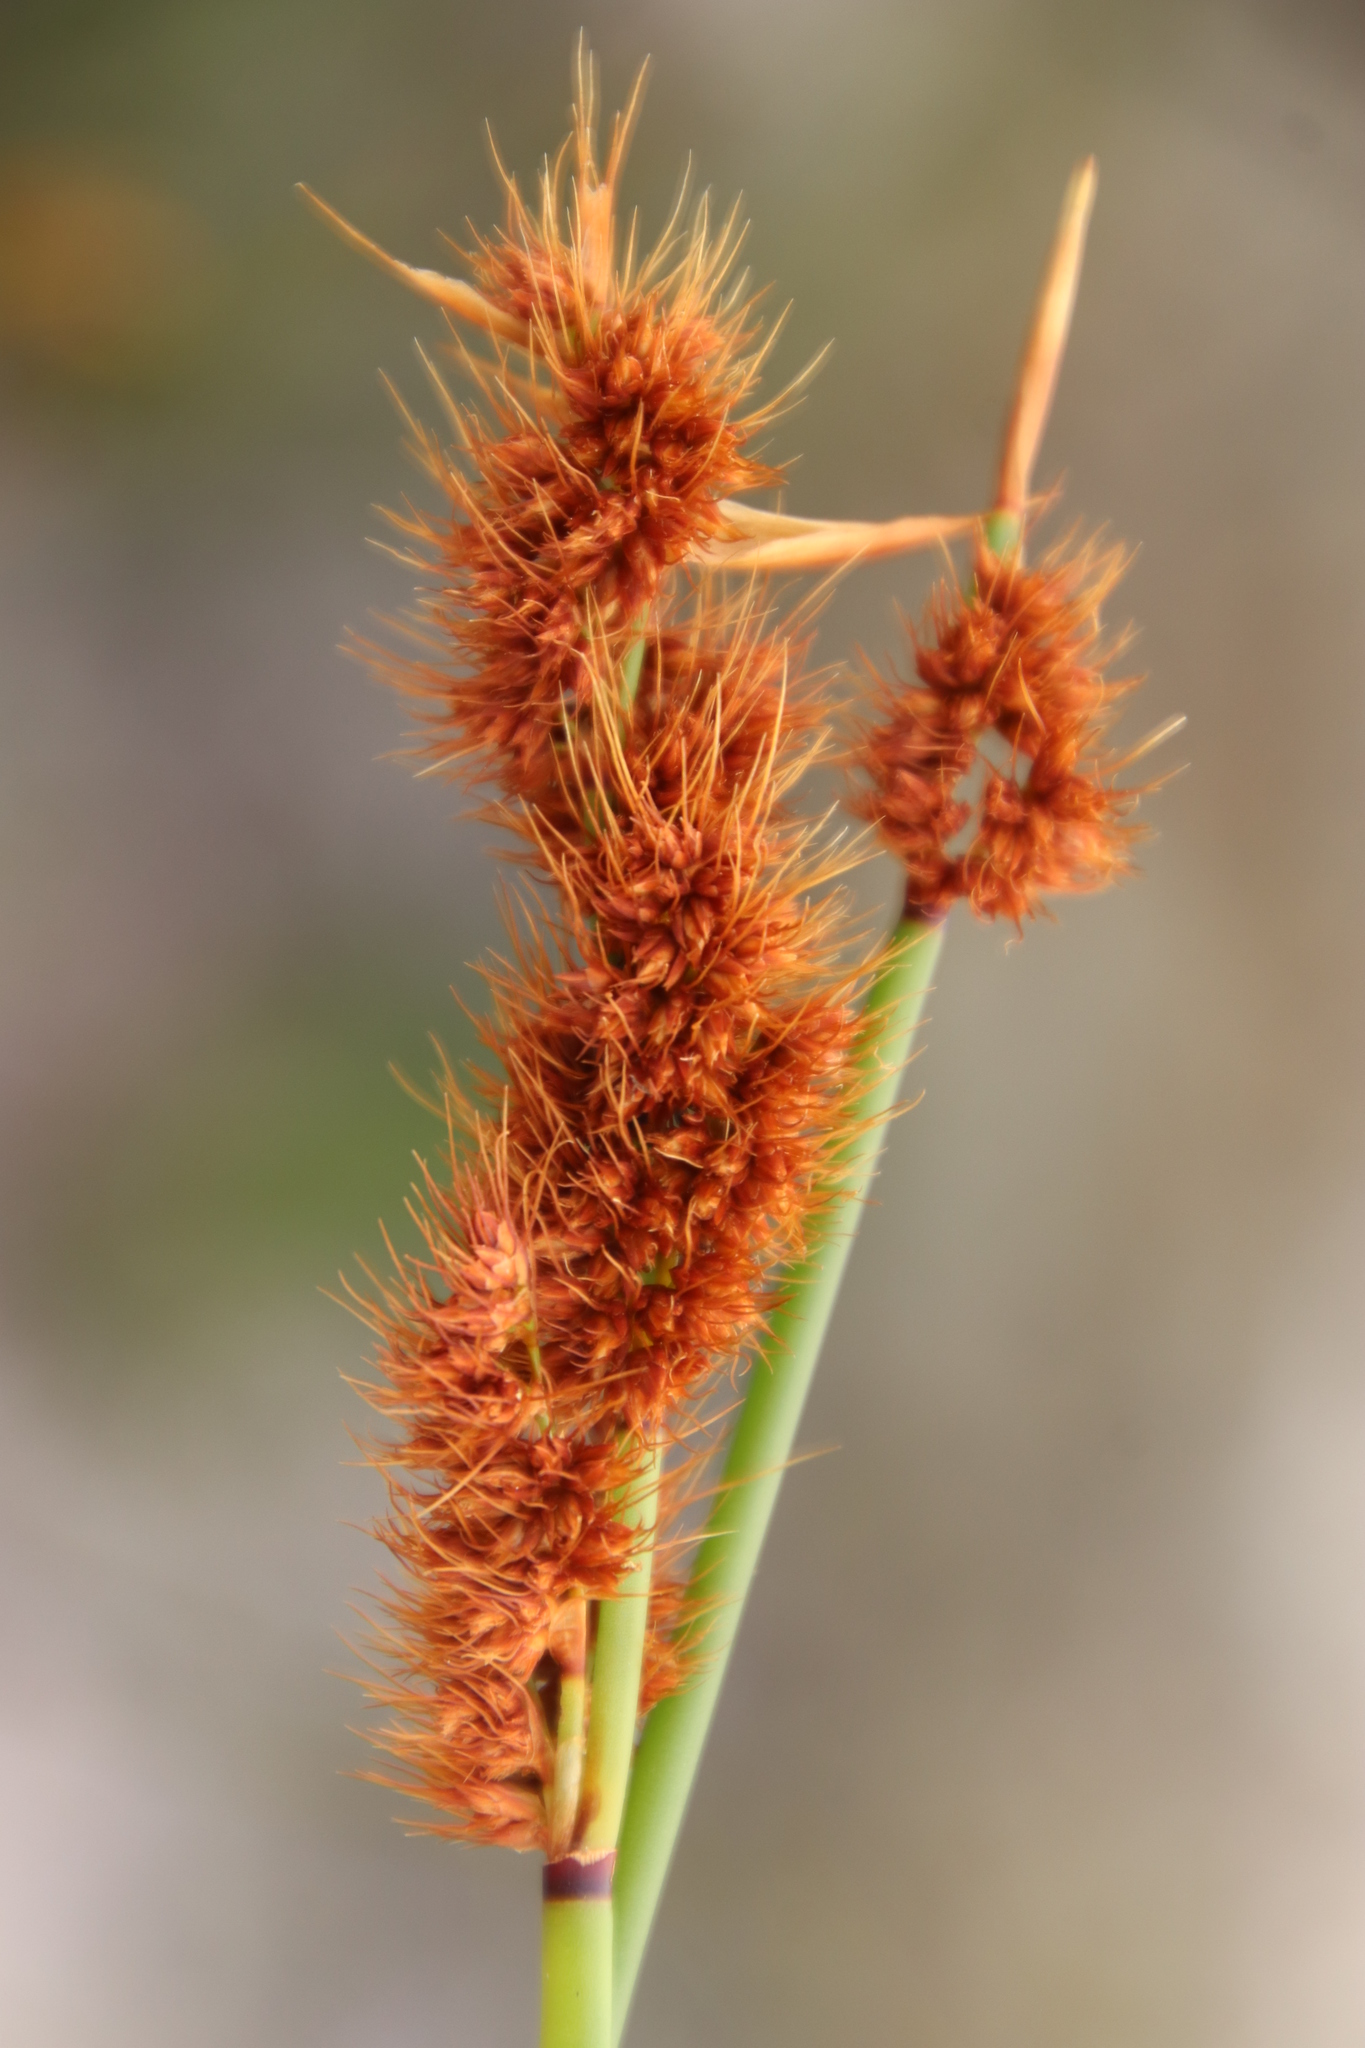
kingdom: Plantae
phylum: Tracheophyta
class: Liliopsida
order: Poales
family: Restionaceae
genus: Elegia
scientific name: Elegia cuspidata
